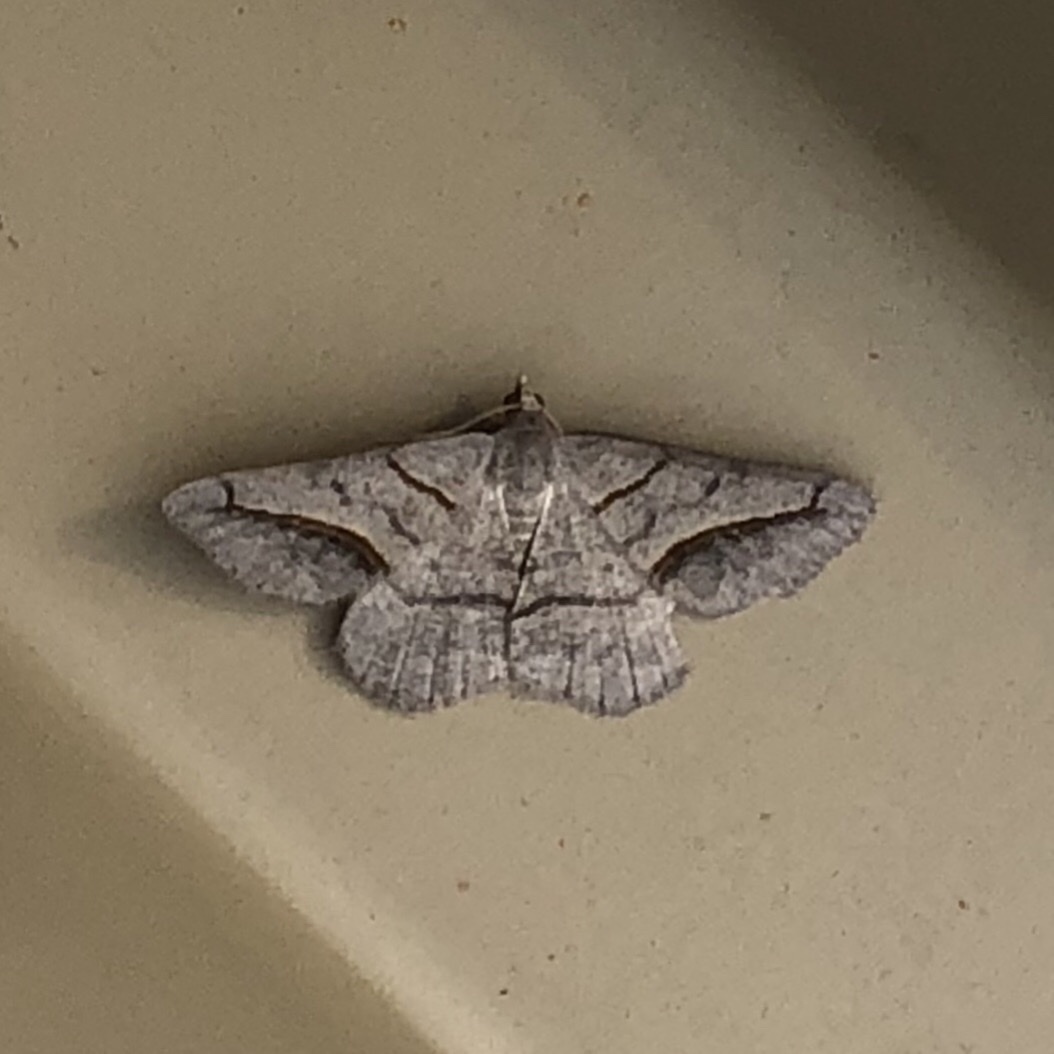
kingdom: Animalia
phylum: Arthropoda
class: Insecta
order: Lepidoptera
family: Geometridae
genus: Digrammia
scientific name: Digrammia mellistrigata
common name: Yellow-lined angle
